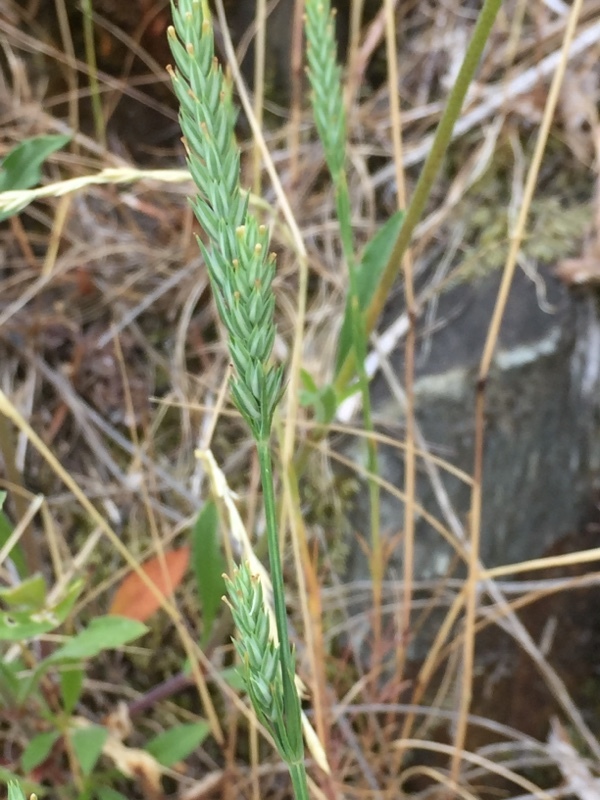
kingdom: Plantae
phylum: Tracheophyta
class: Magnoliopsida
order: Gentianales
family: Rubiaceae
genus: Crucianella
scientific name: Crucianella angustifolia
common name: Narrowleaf crucianella
